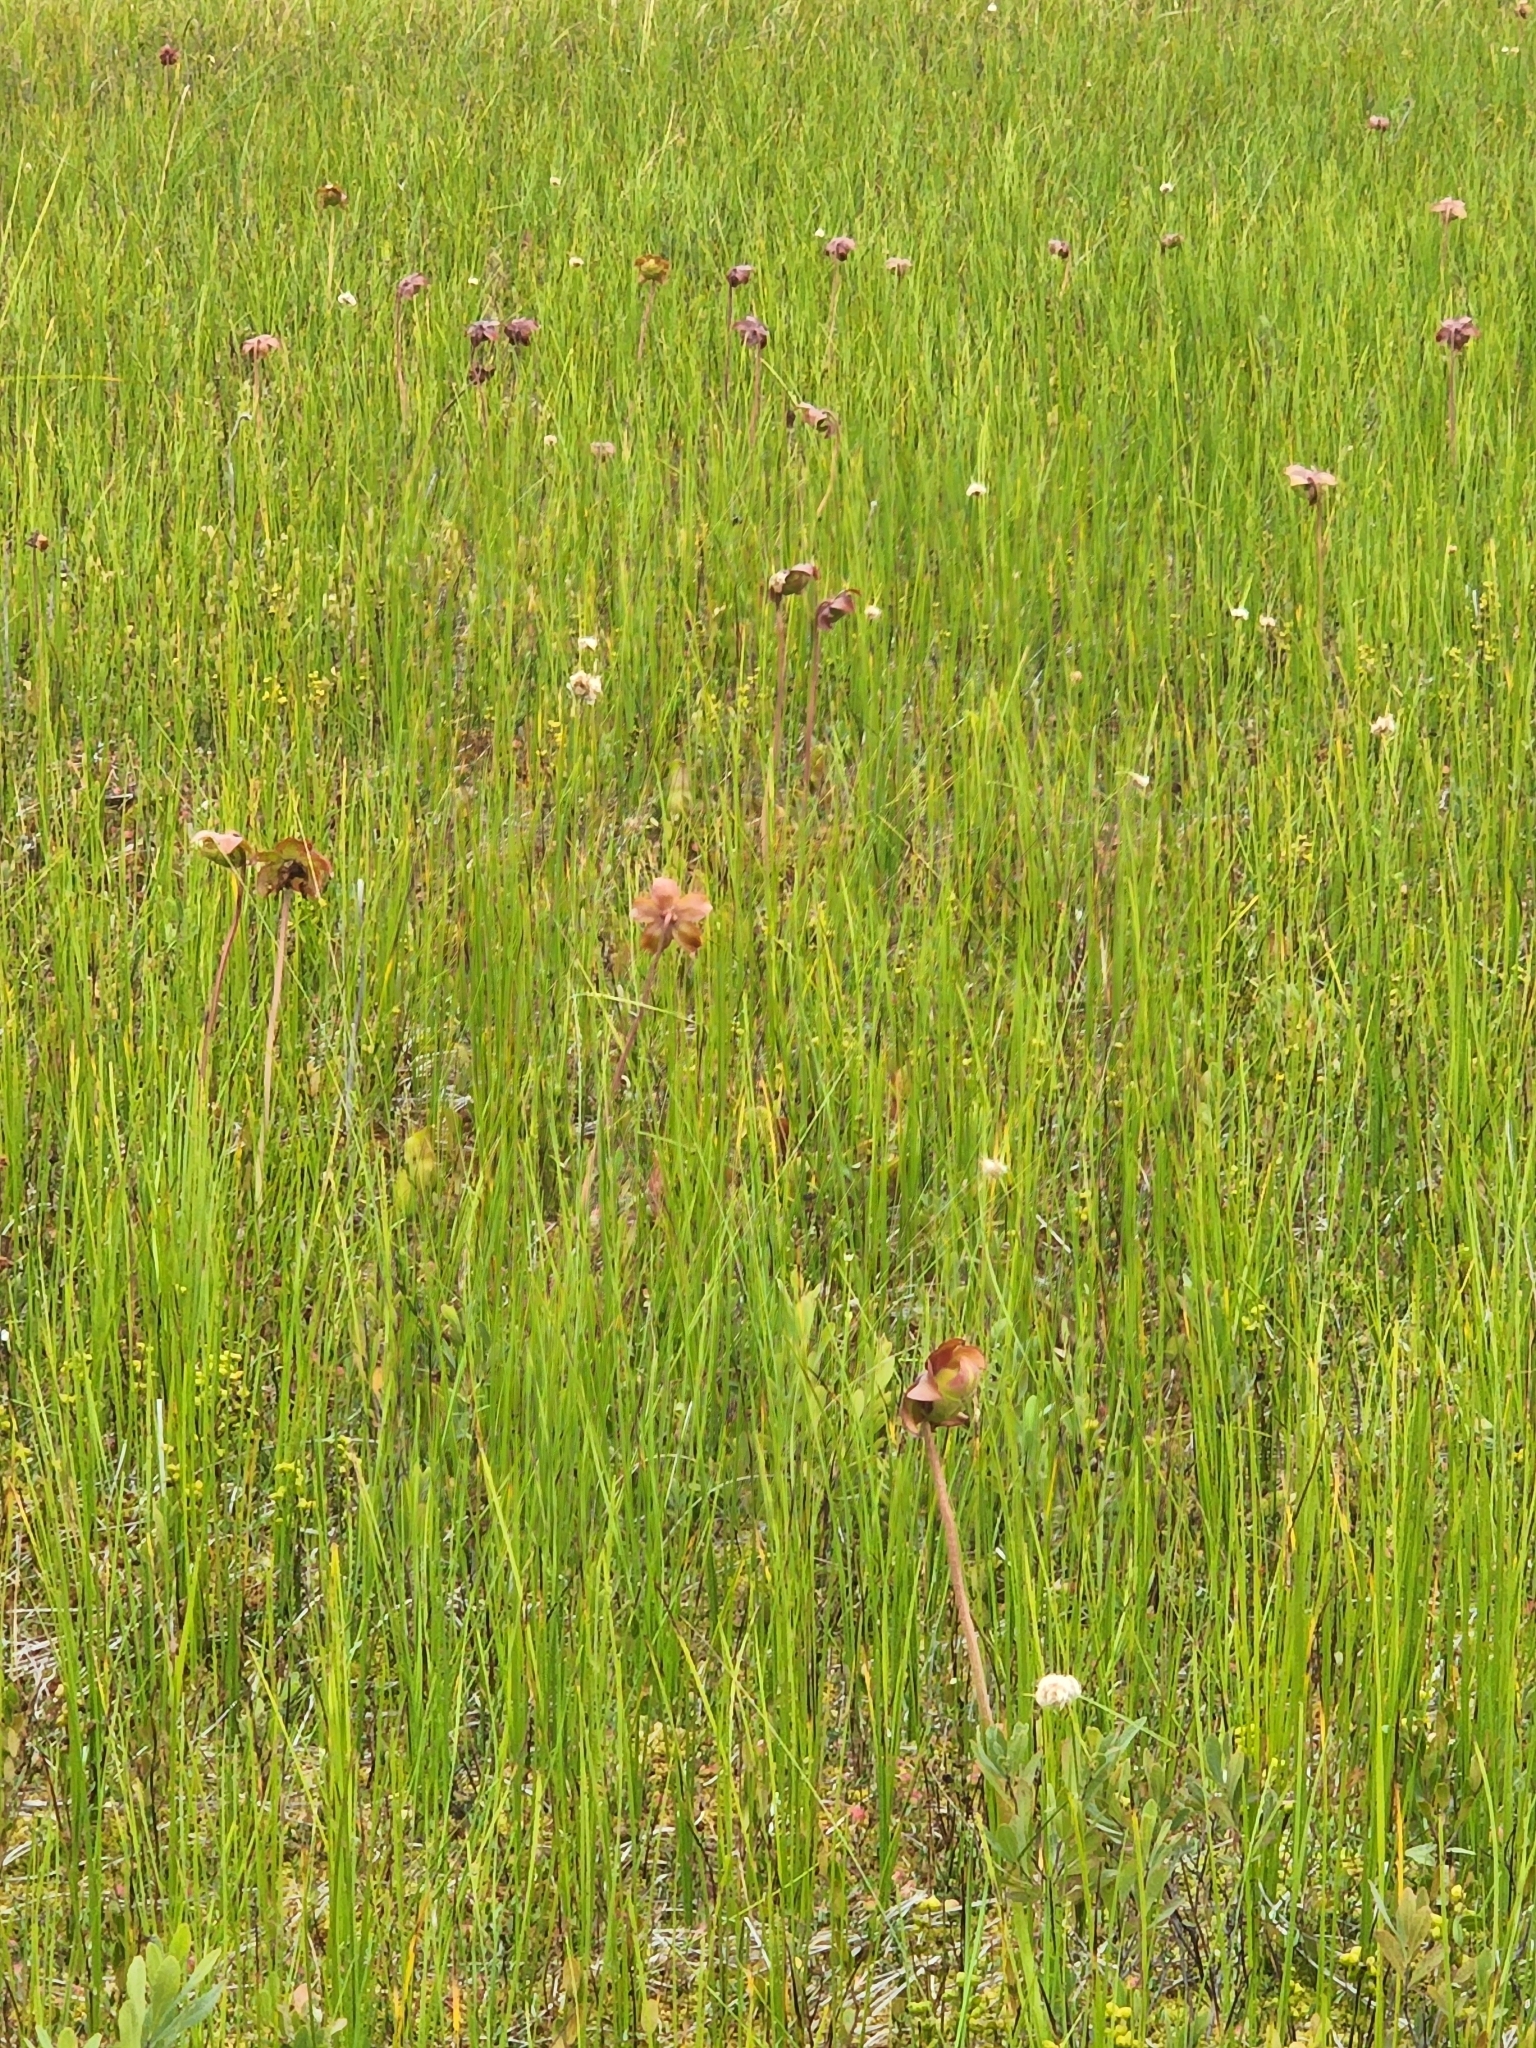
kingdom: Plantae
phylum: Tracheophyta
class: Magnoliopsida
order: Ericales
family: Sarraceniaceae
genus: Sarracenia
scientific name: Sarracenia purpurea
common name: Pitcherplant
